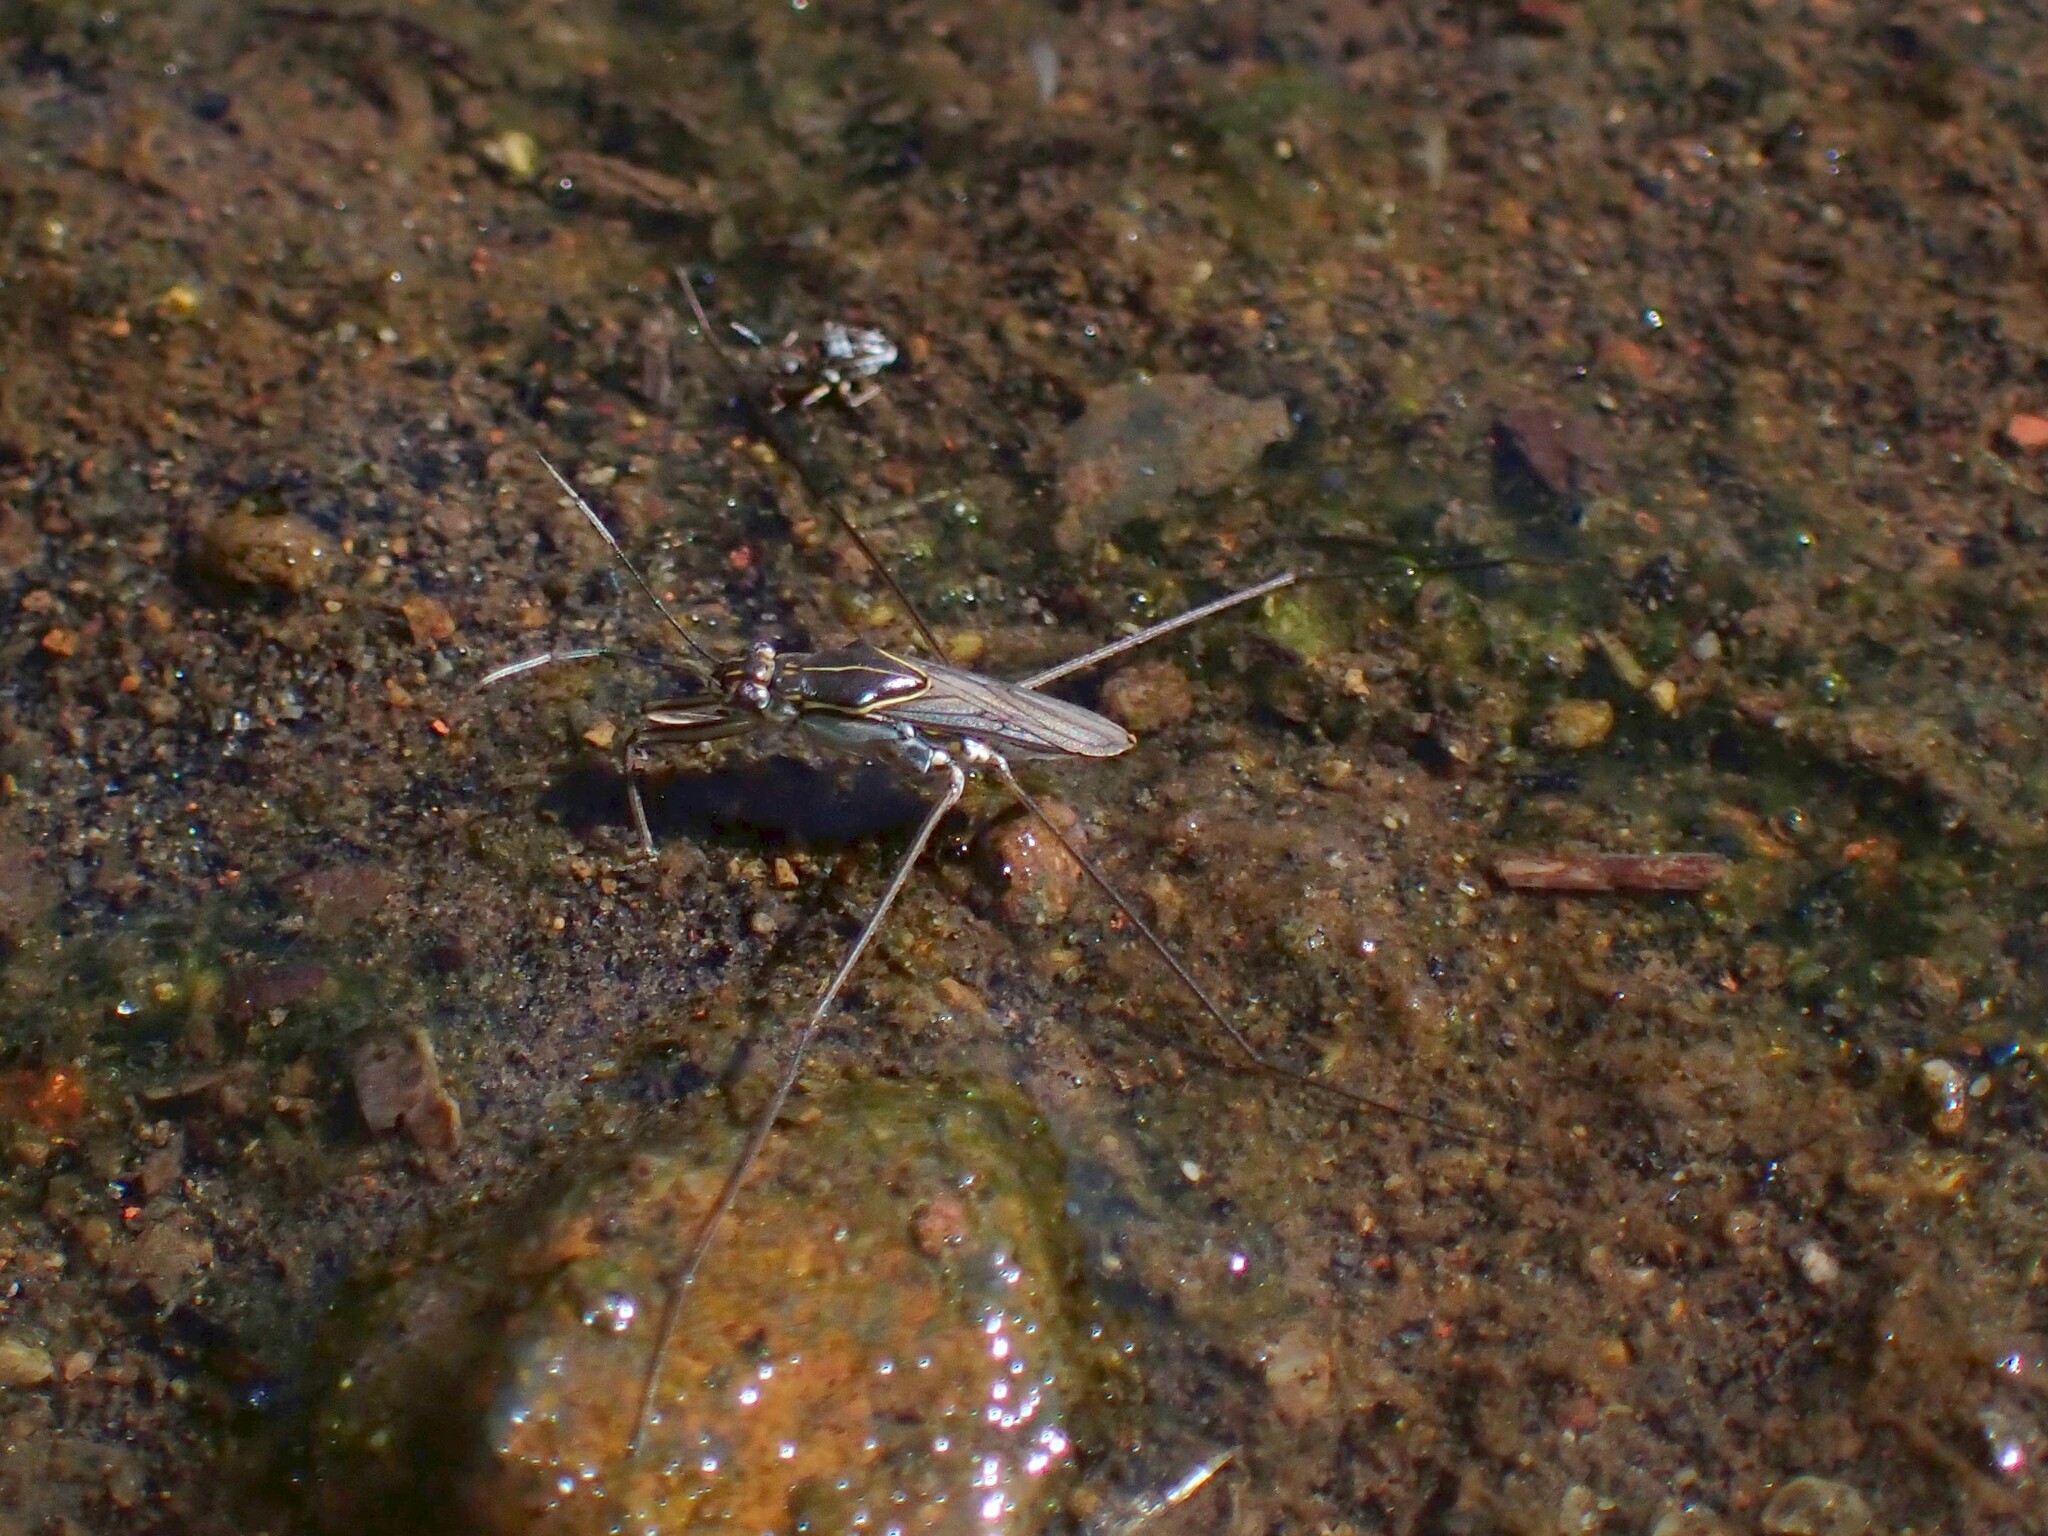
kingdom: Animalia
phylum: Arthropoda
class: Insecta
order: Hemiptera
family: Gerridae
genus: Limnogonus
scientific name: Limnogonus
